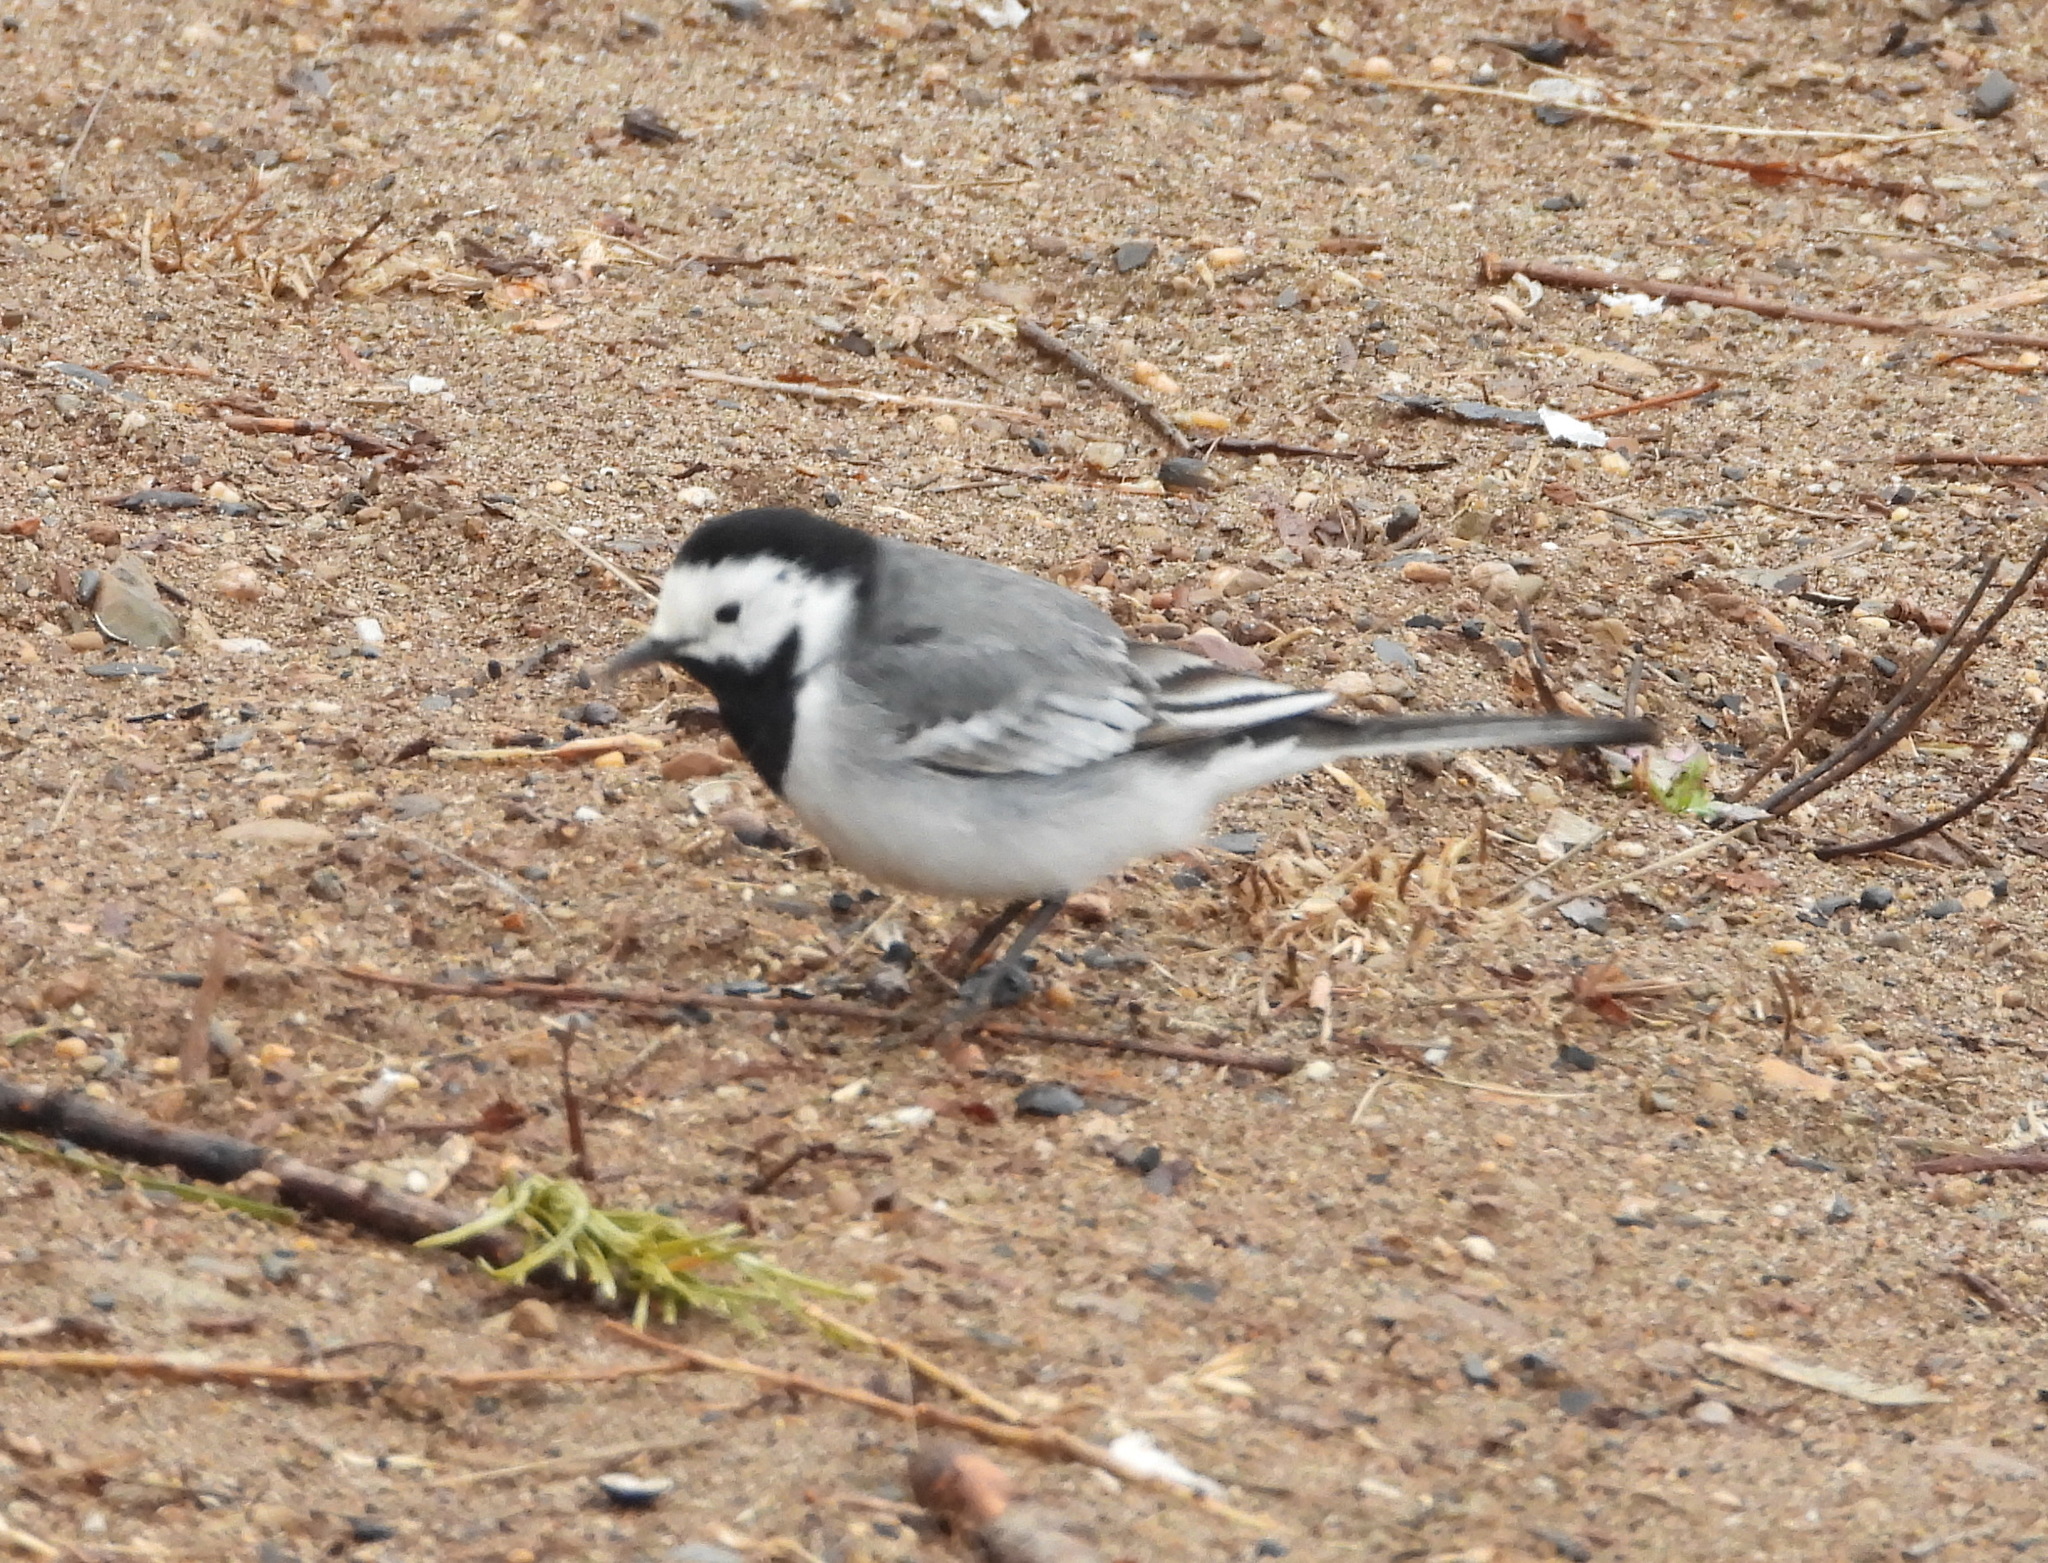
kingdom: Animalia
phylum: Chordata
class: Aves
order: Passeriformes
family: Motacillidae
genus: Motacilla
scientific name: Motacilla alba
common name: White wagtail
